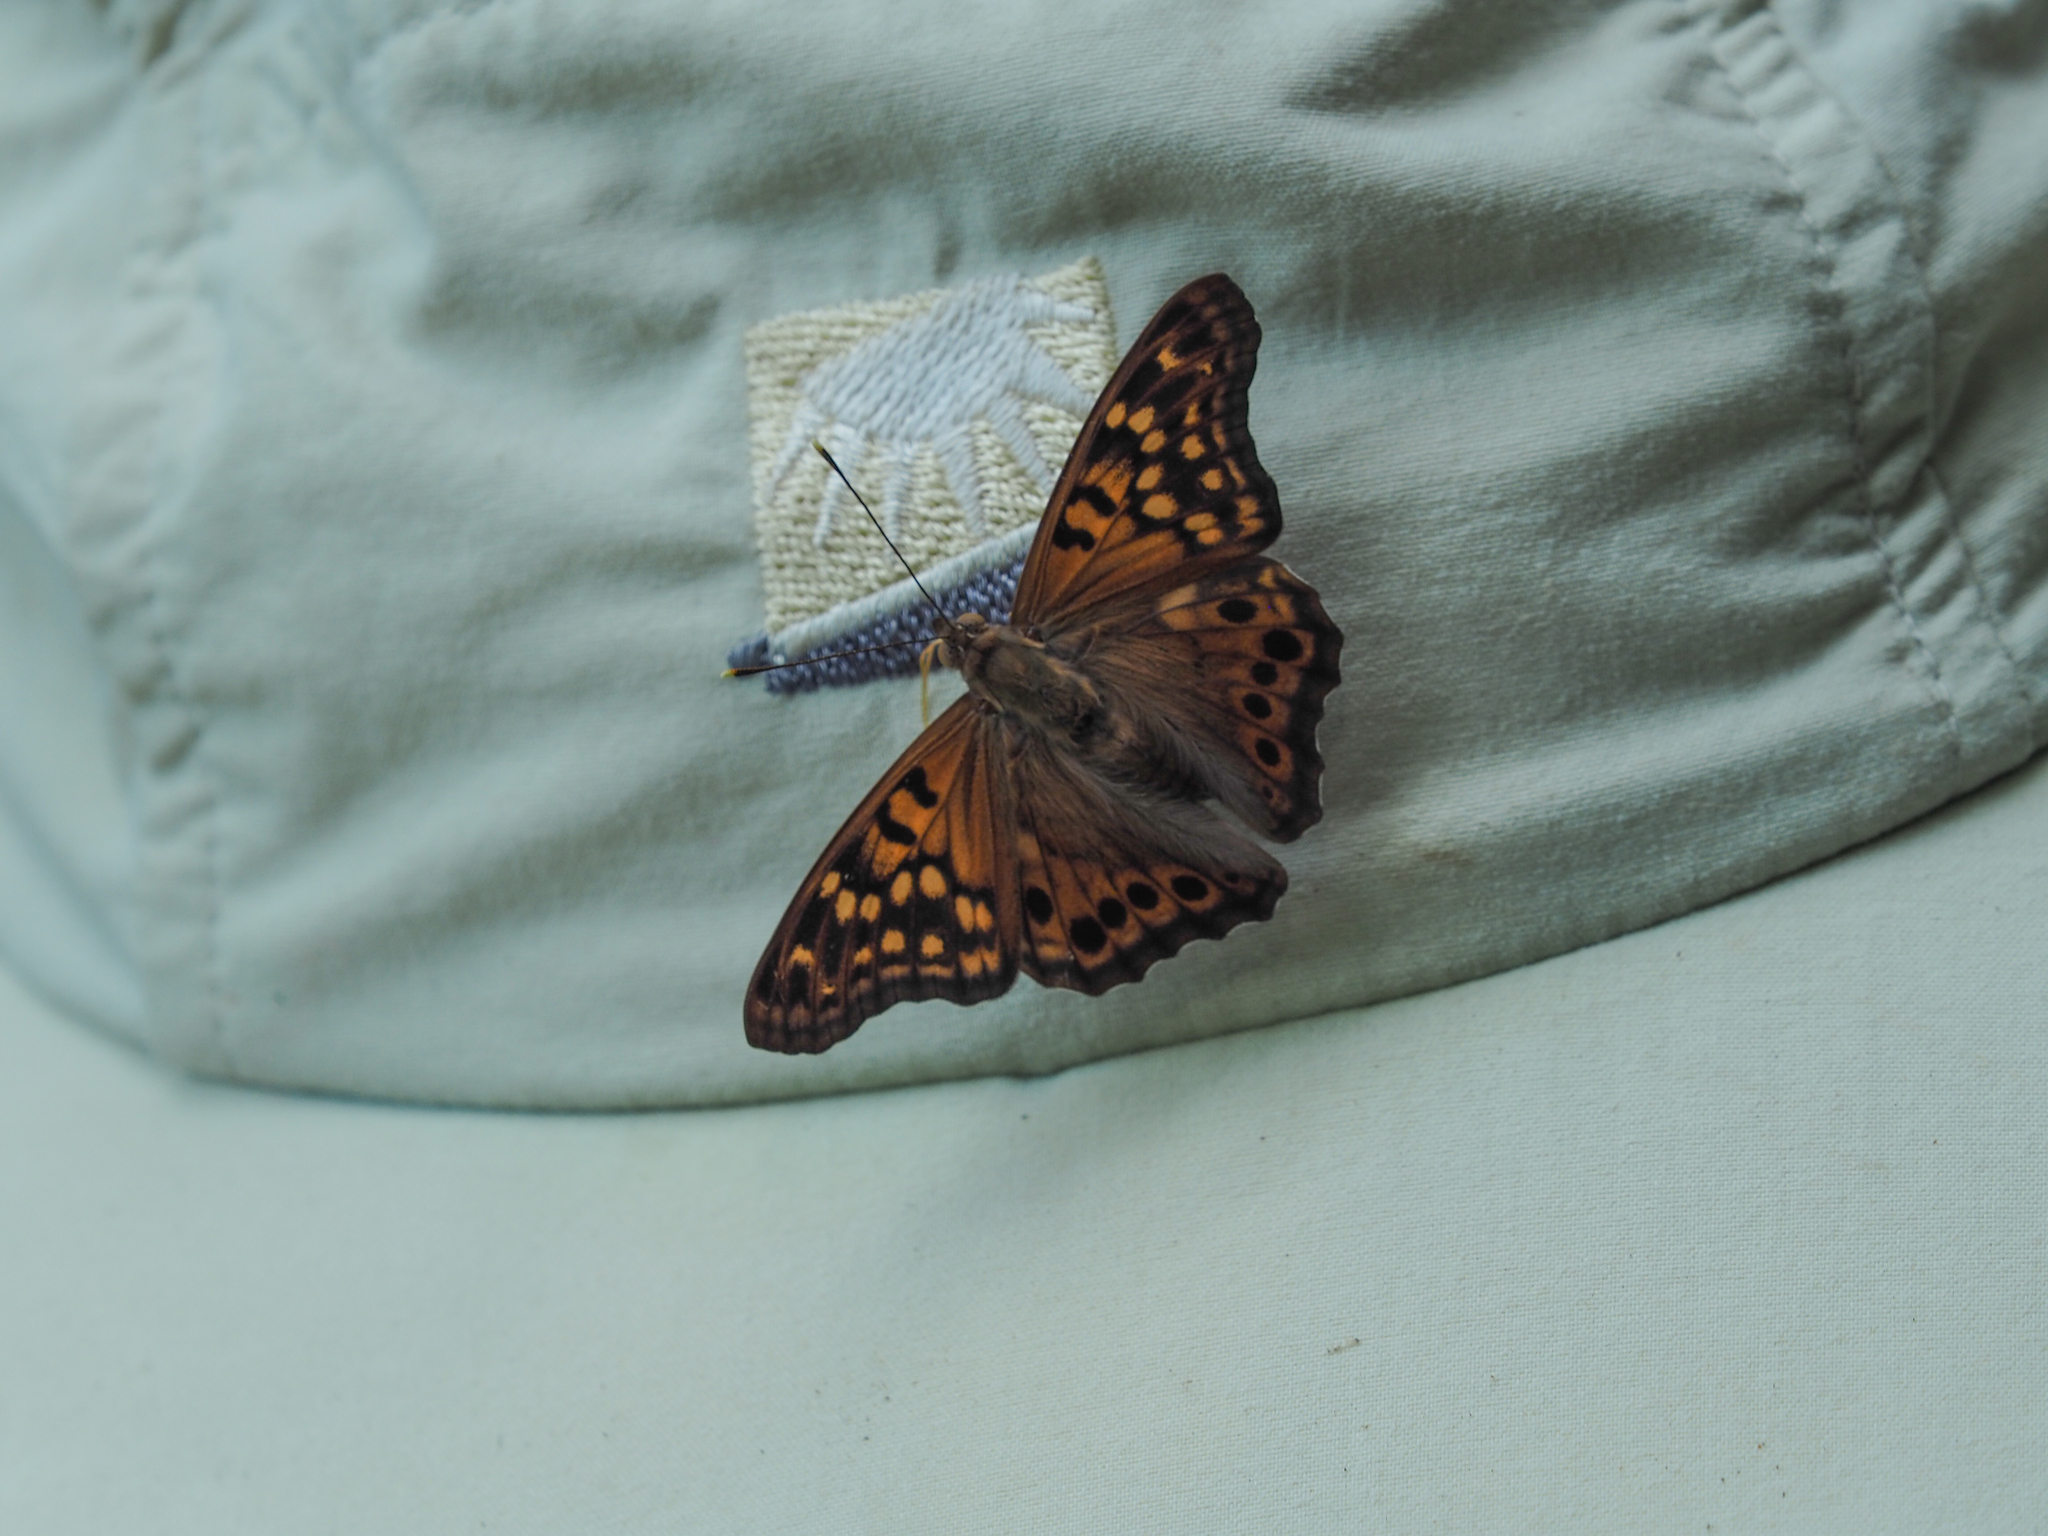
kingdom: Animalia
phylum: Arthropoda
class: Insecta
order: Lepidoptera
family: Nymphalidae
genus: Asterocampa
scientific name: Asterocampa clyton
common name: Tawny emperor
